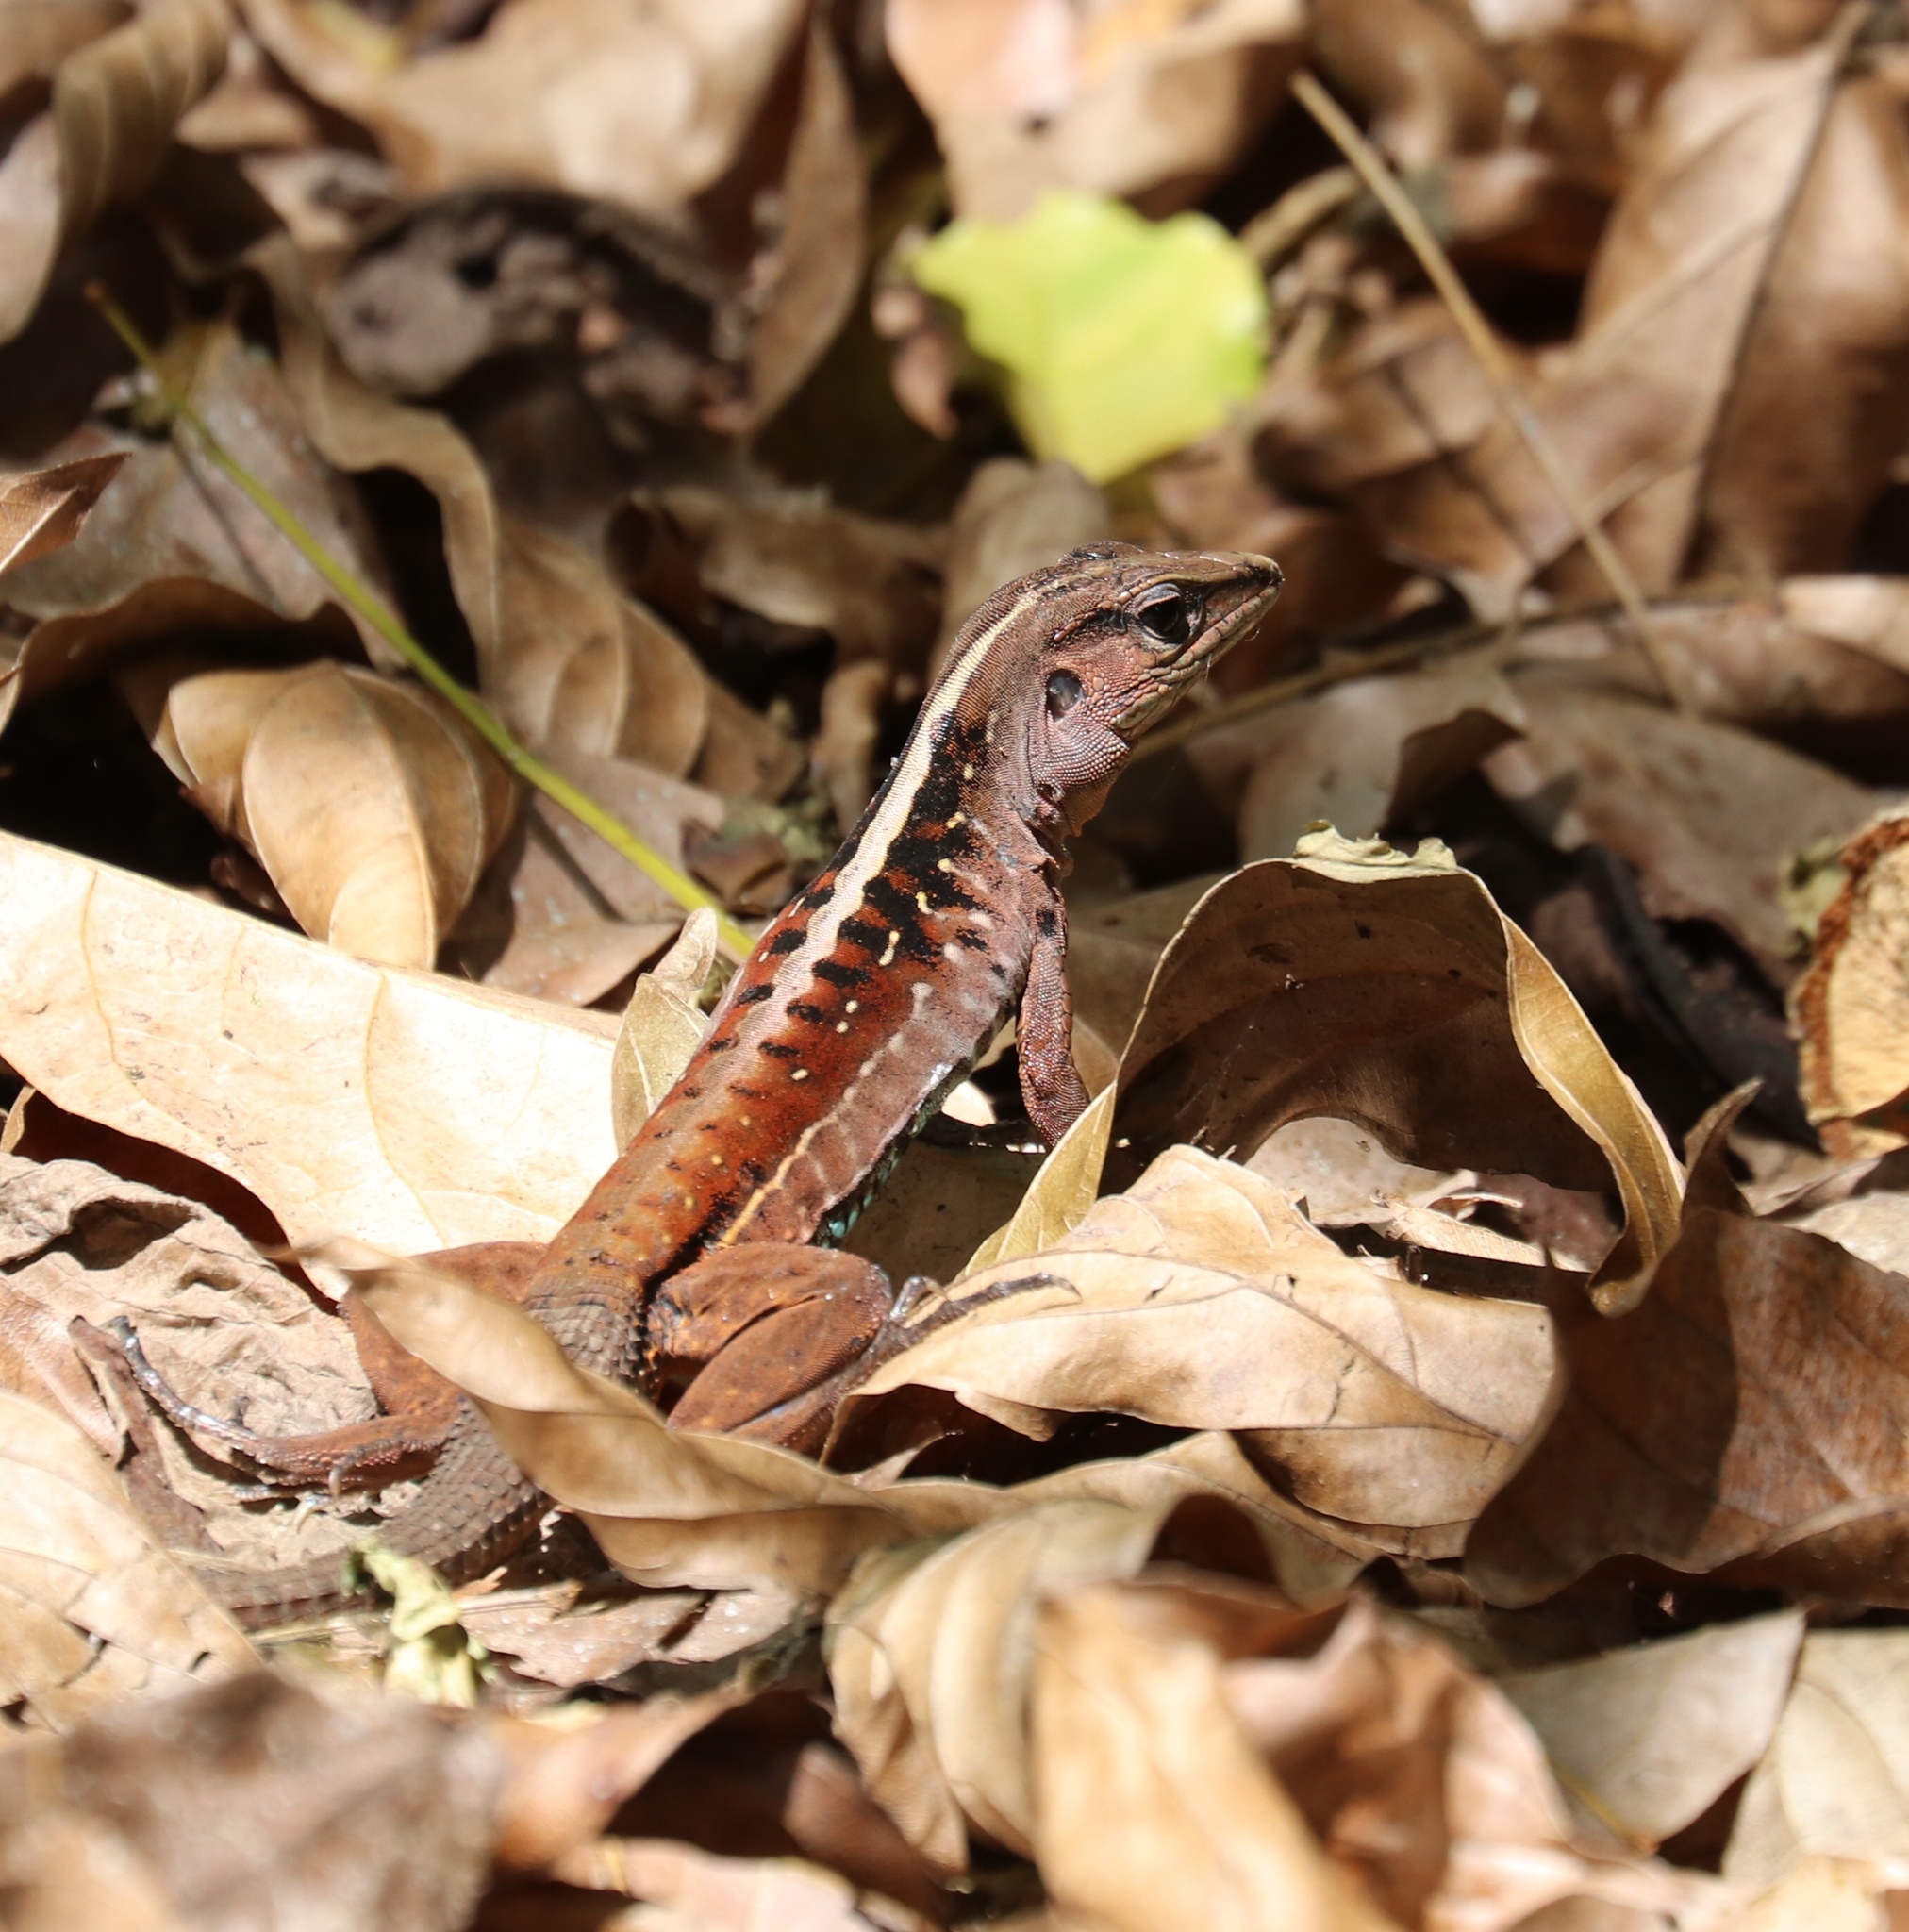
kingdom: Animalia
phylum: Chordata
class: Squamata
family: Teiidae
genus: Holcosus
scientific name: Holcosus festivus
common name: Middle american ameiva
